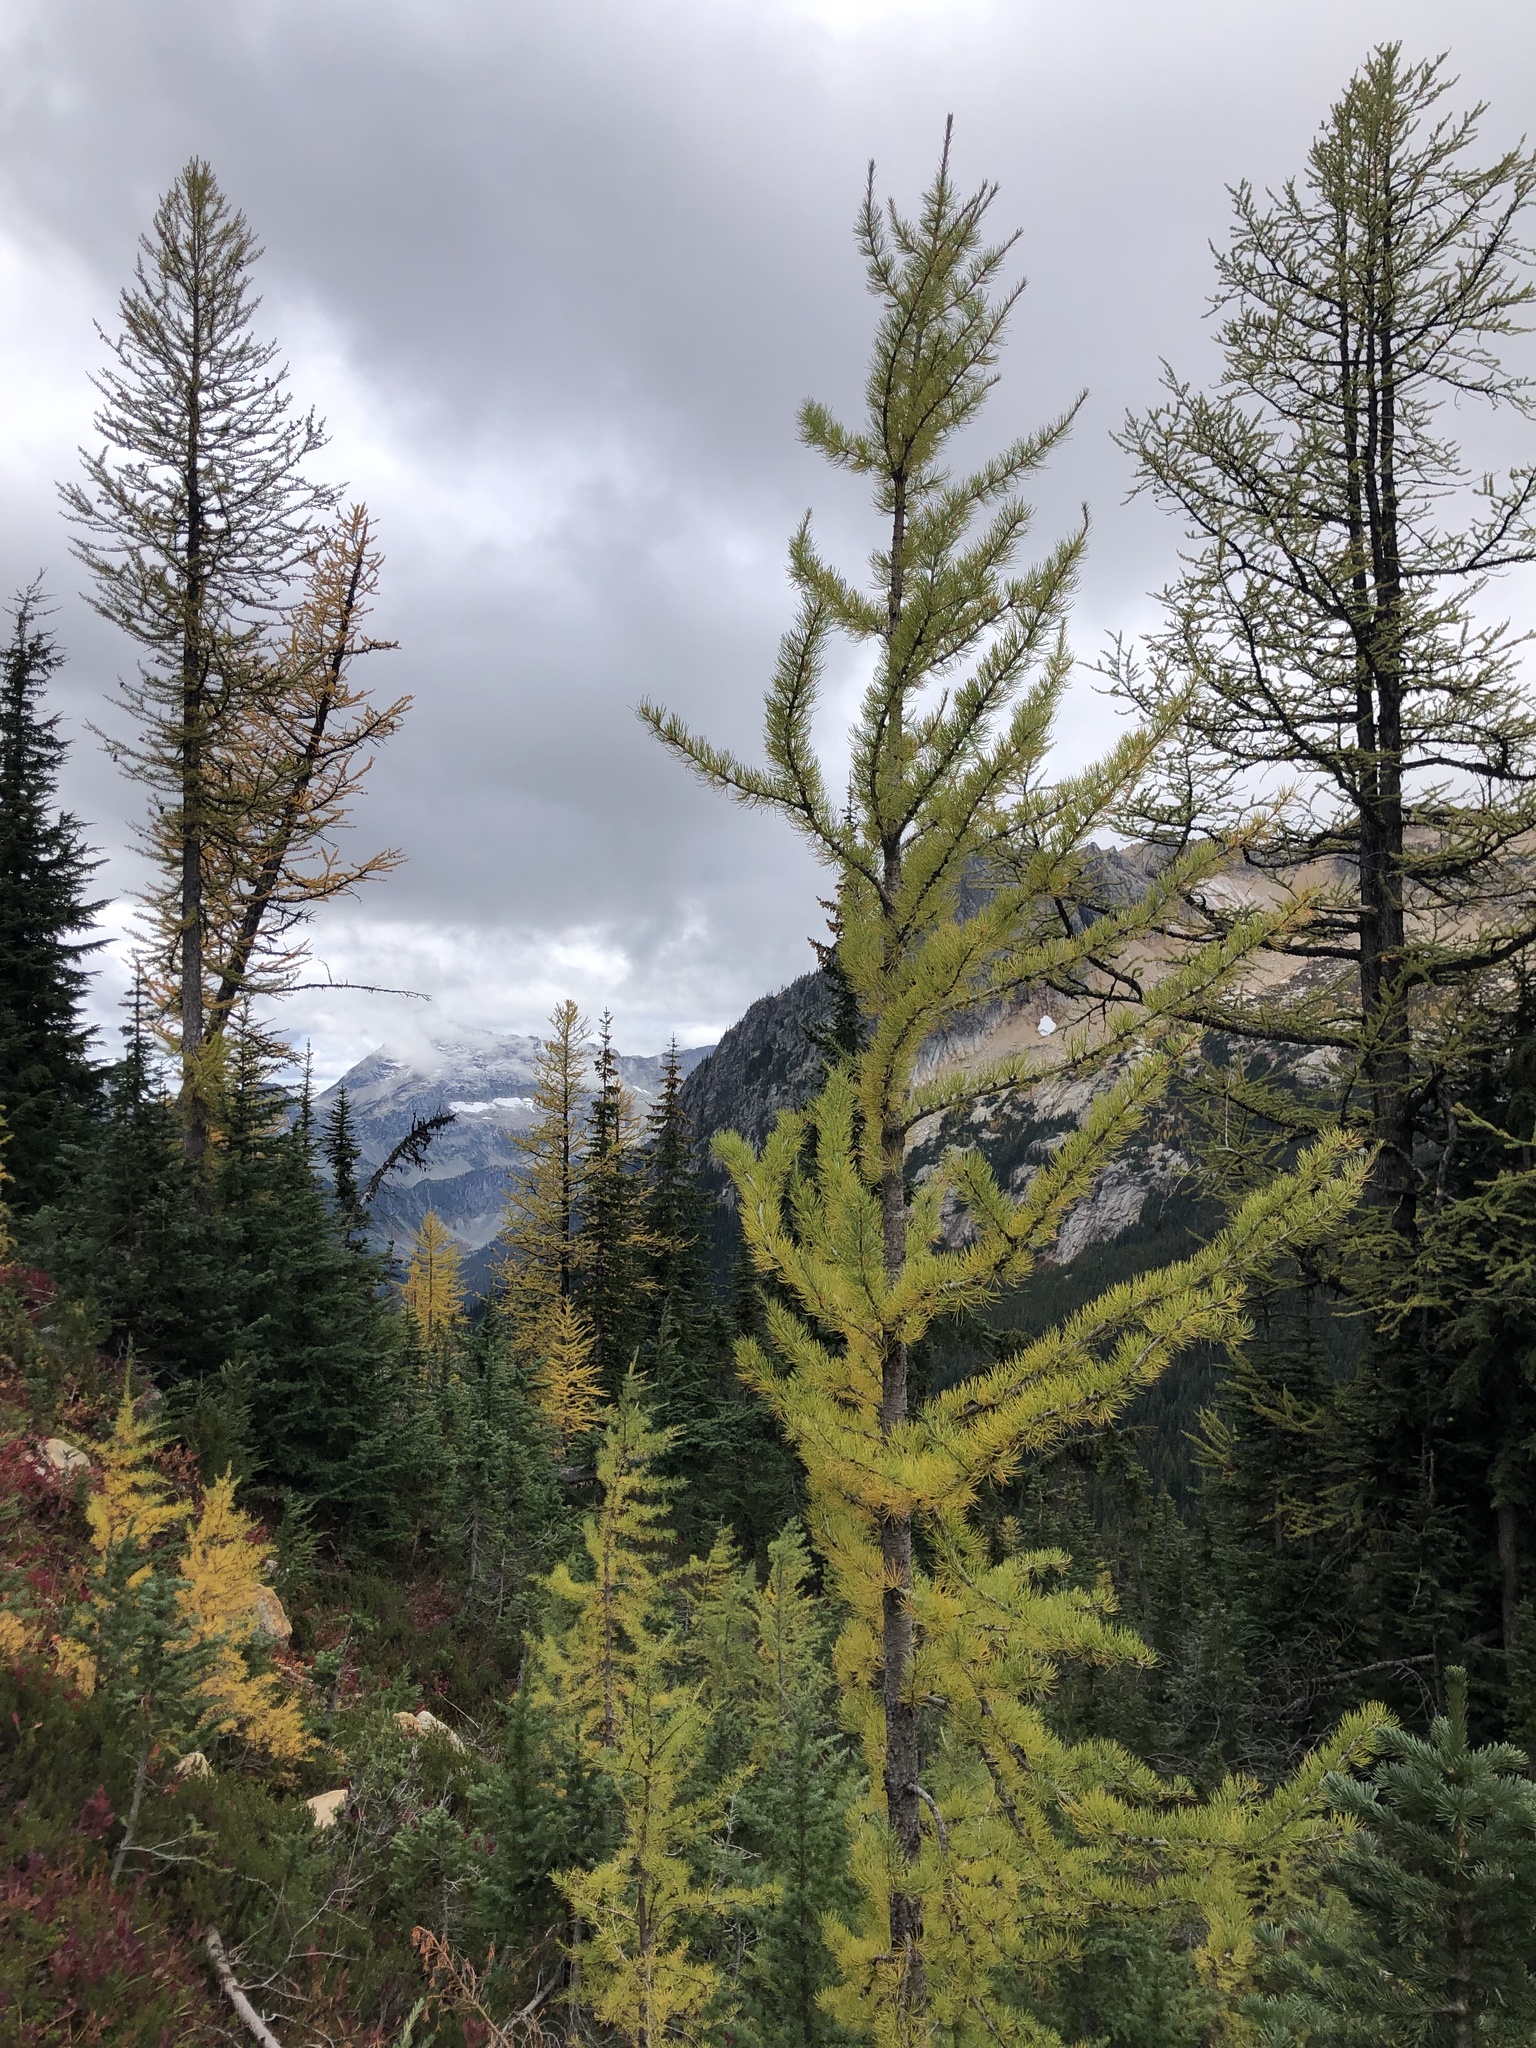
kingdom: Plantae
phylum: Tracheophyta
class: Pinopsida
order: Pinales
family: Pinaceae
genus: Larix
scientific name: Larix lyallii
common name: Alpine larch
